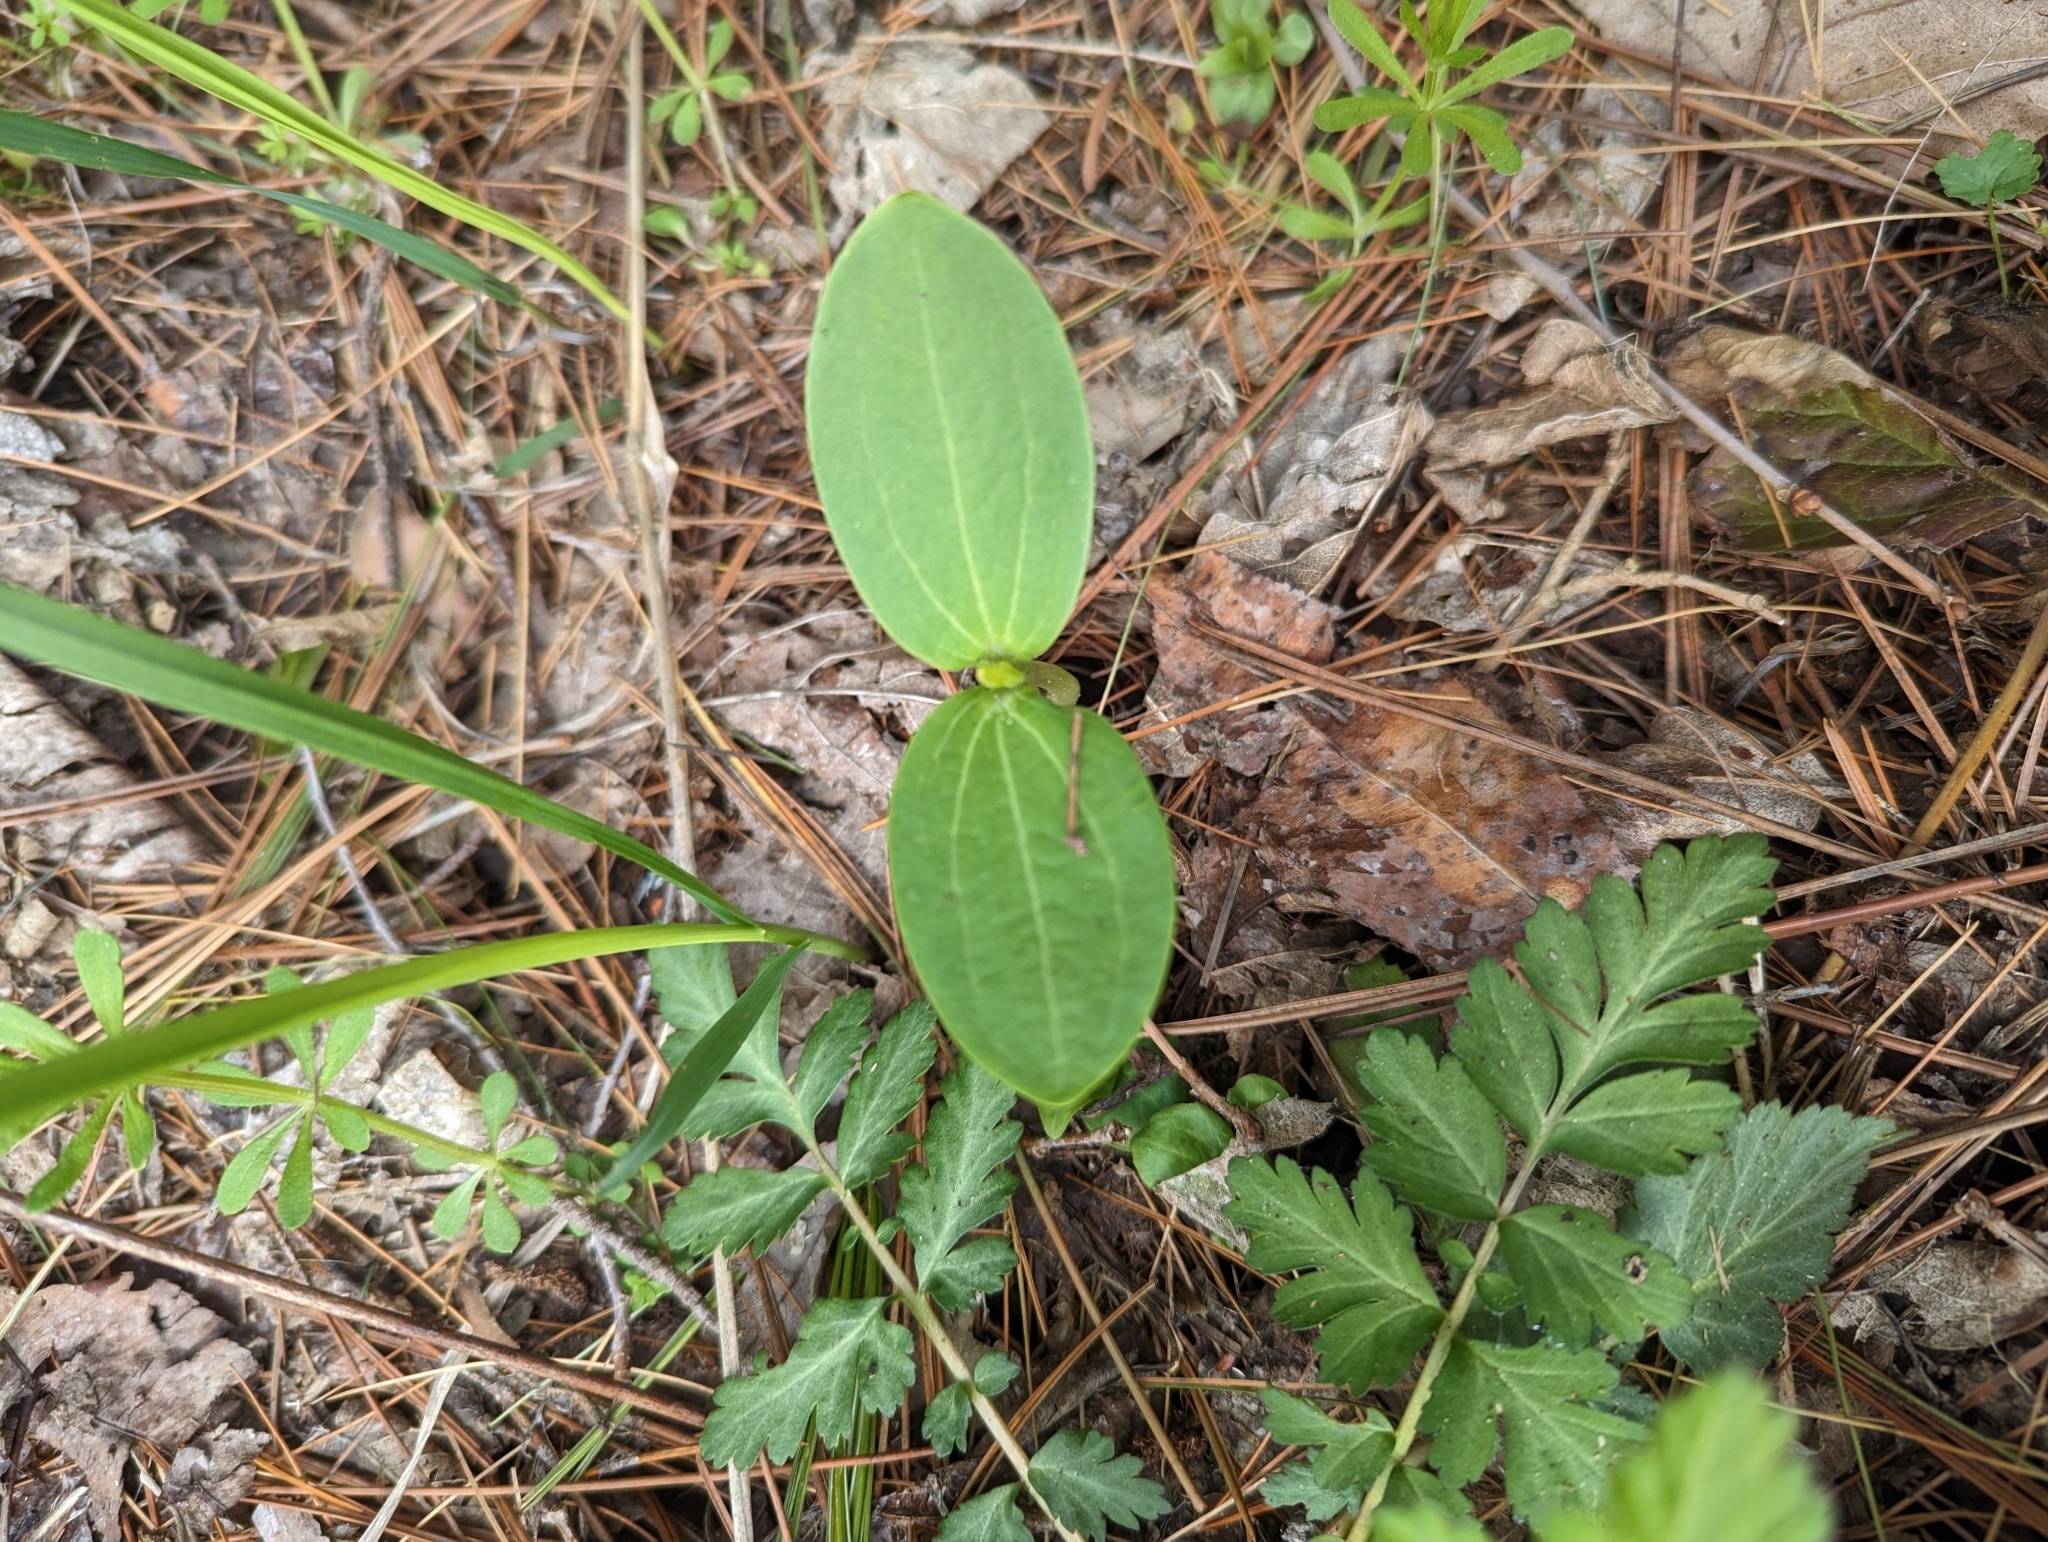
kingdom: Plantae
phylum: Tracheophyta
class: Magnoliopsida
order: Cucurbitales
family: Cucurbitaceae
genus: Echinocystis
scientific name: Echinocystis lobata
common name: Wild cucumber
